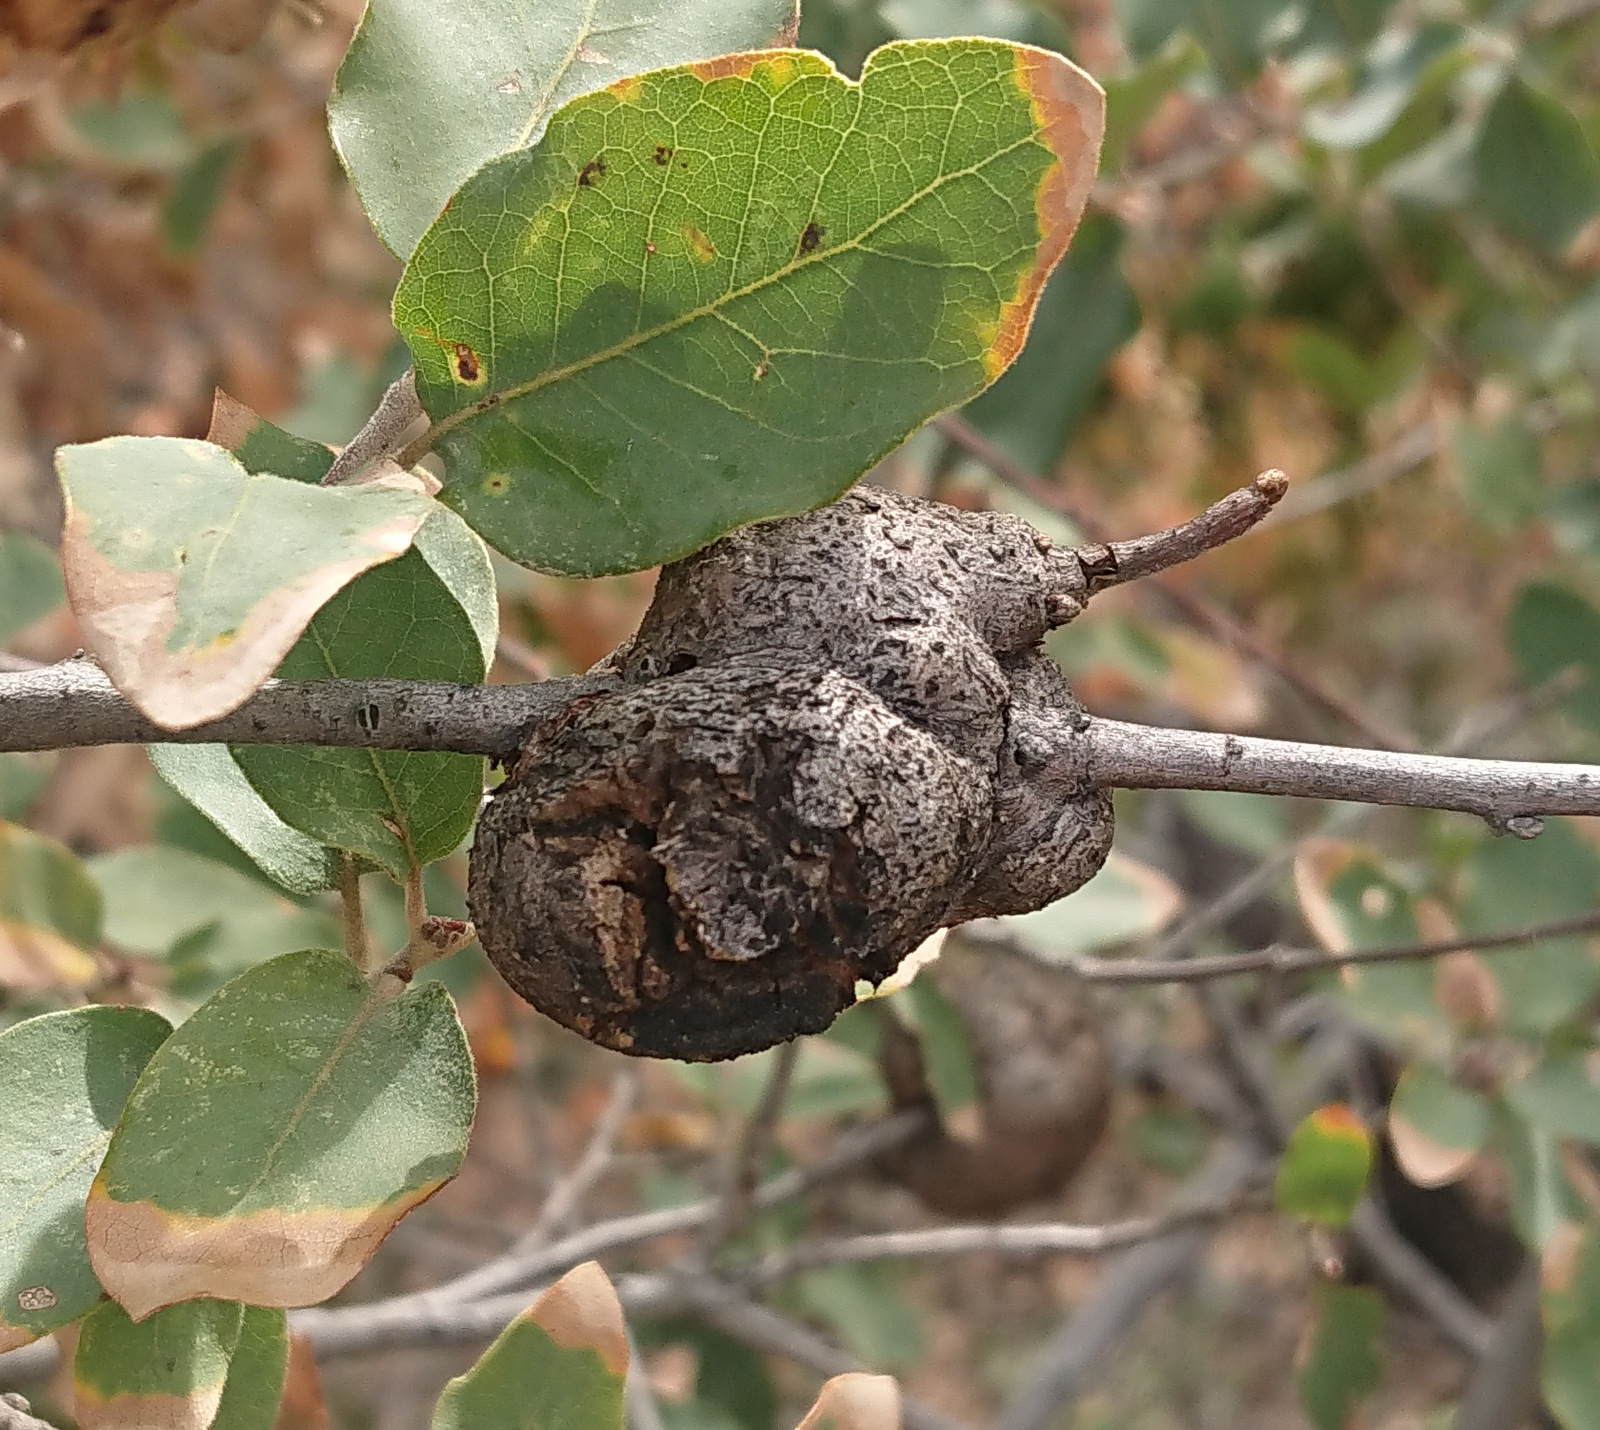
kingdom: Animalia
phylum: Arthropoda
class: Insecta
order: Hymenoptera
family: Cynipidae
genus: Callirhytis
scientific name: Callirhytis
